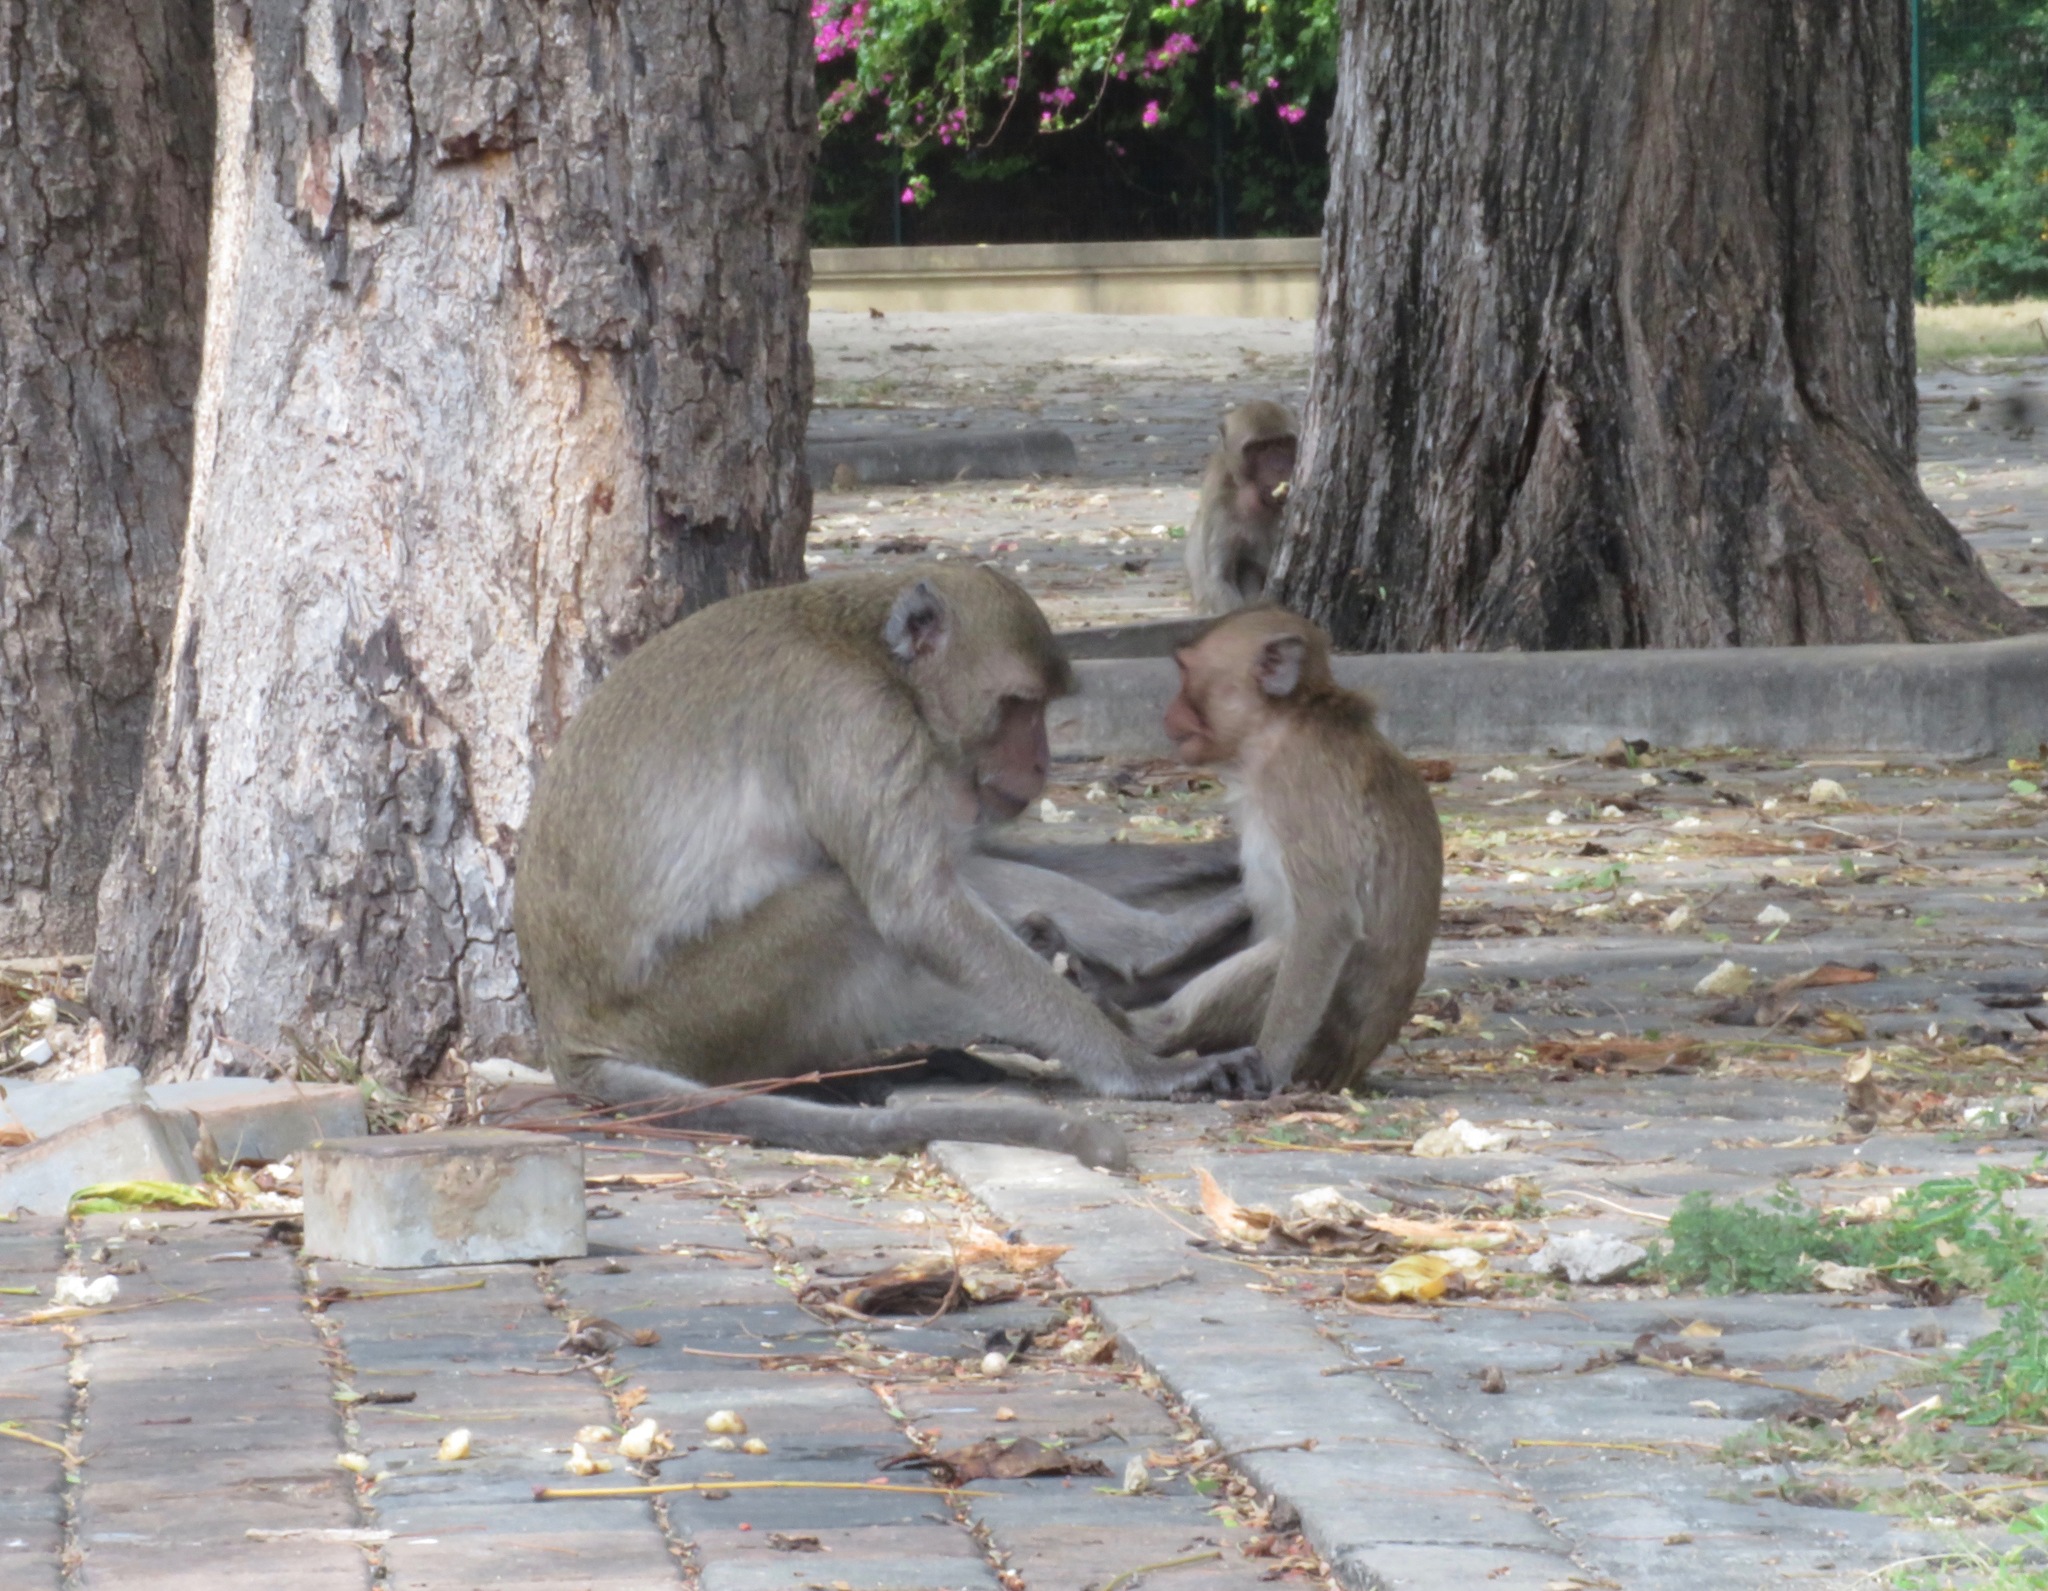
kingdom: Animalia
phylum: Chordata
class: Mammalia
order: Primates
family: Cercopithecidae
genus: Macaca
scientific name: Macaca fascicularis
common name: Crab-eating macaque
